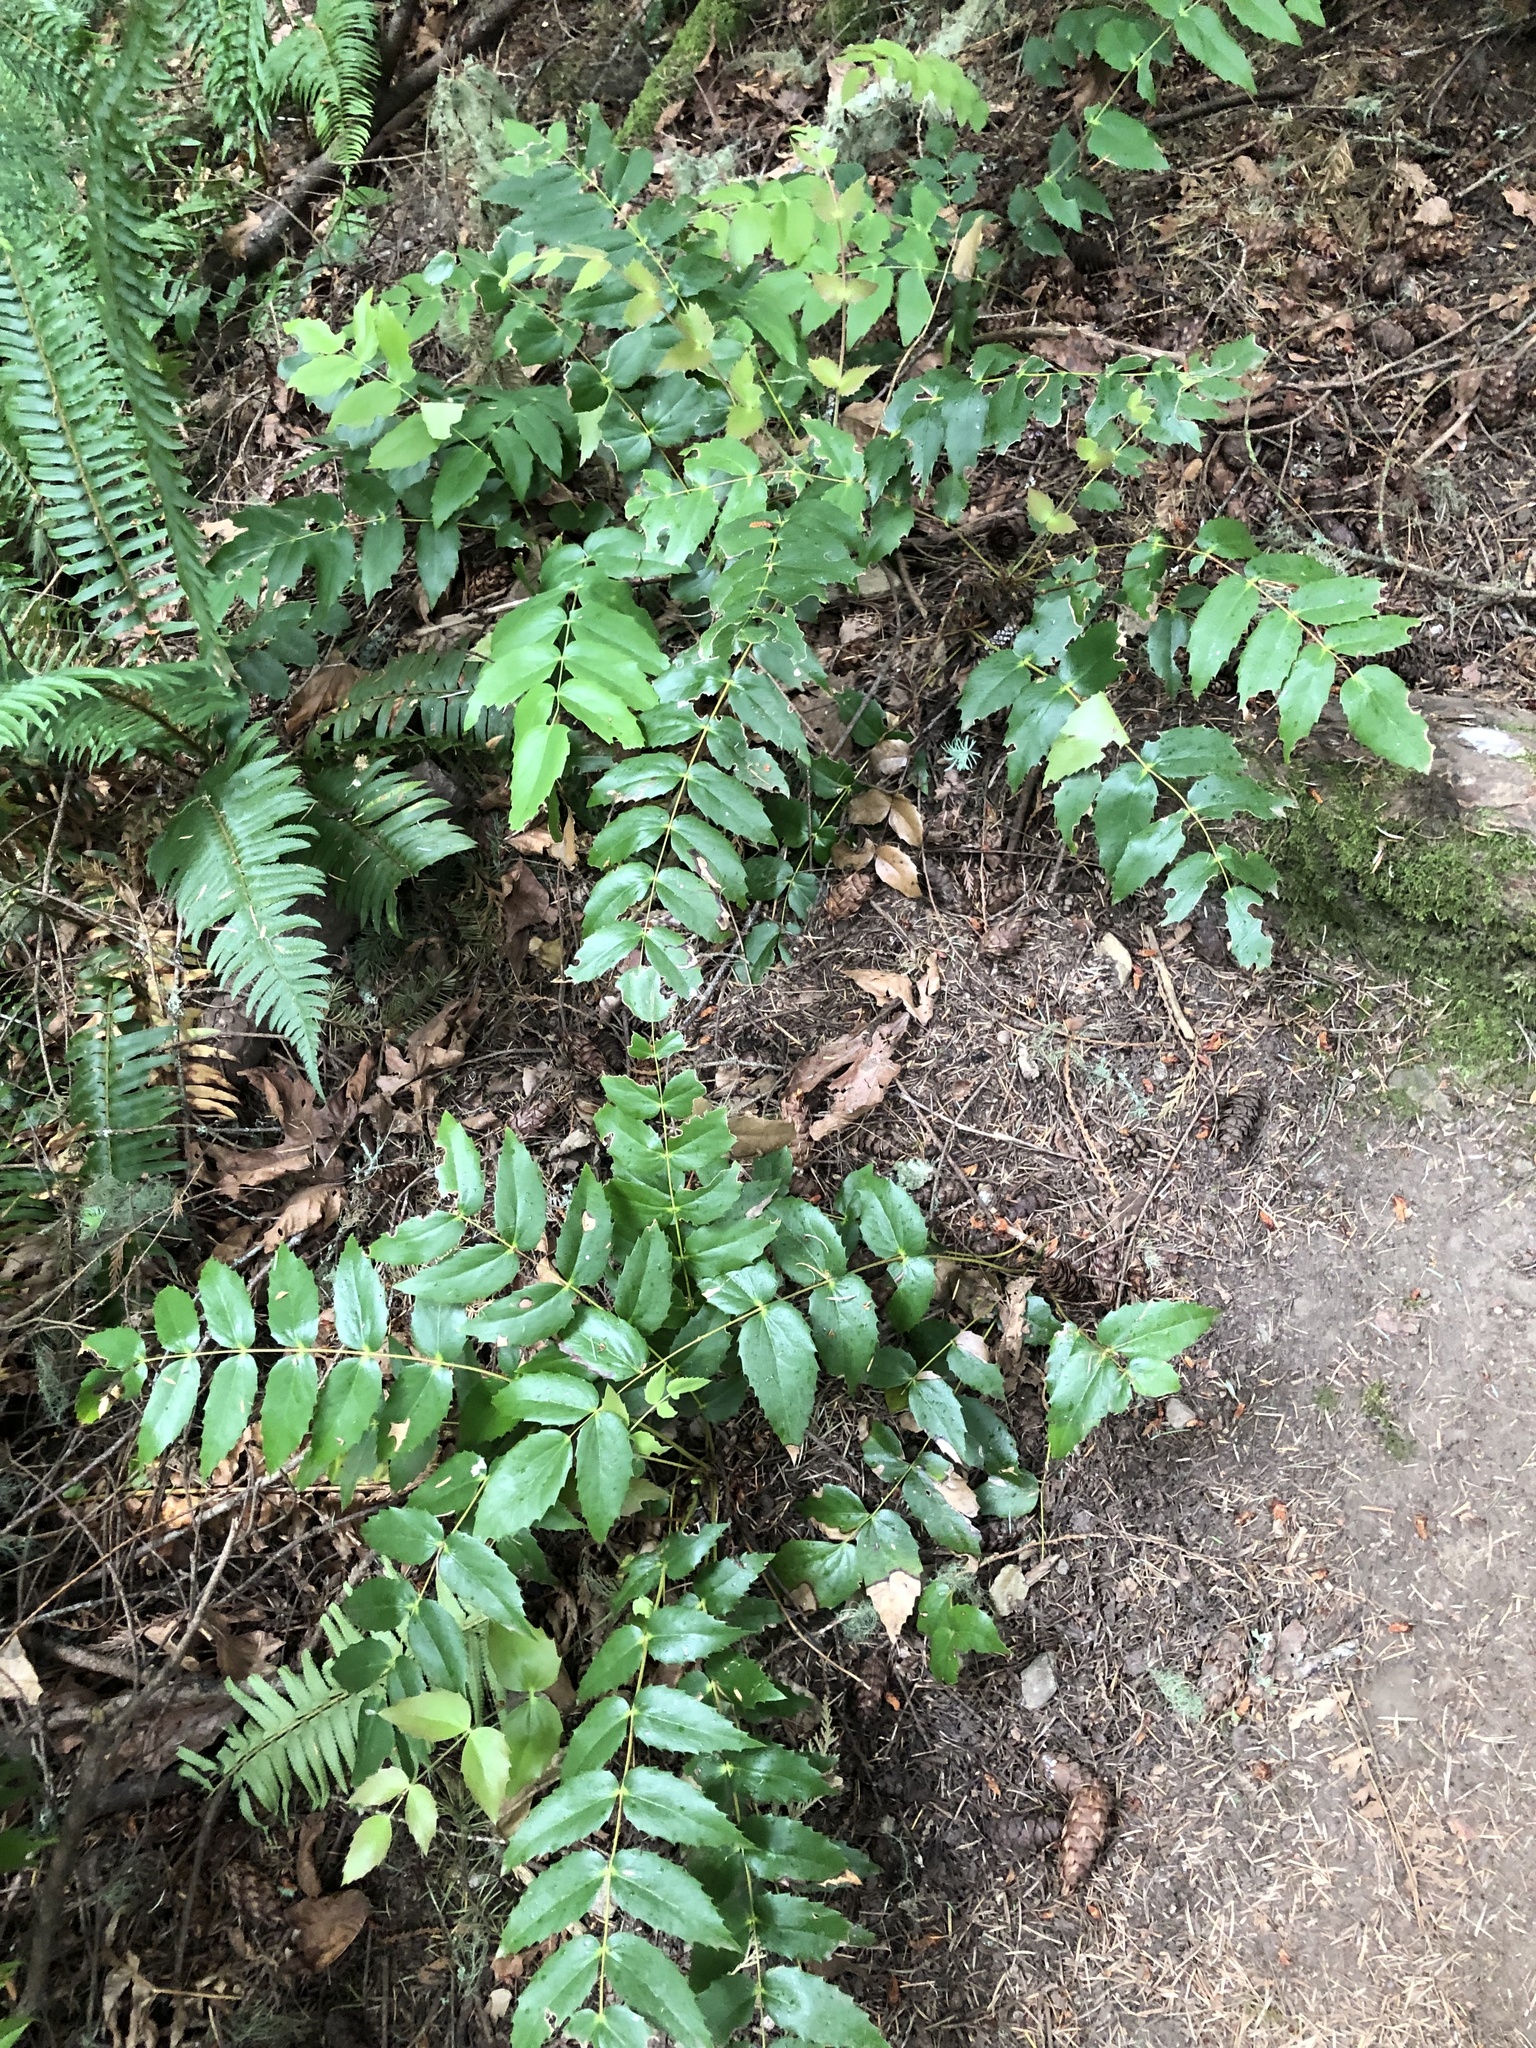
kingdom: Plantae
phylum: Tracheophyta
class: Magnoliopsida
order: Ranunculales
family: Berberidaceae
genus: Mahonia
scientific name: Mahonia nervosa
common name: Cascade oregon-grape
